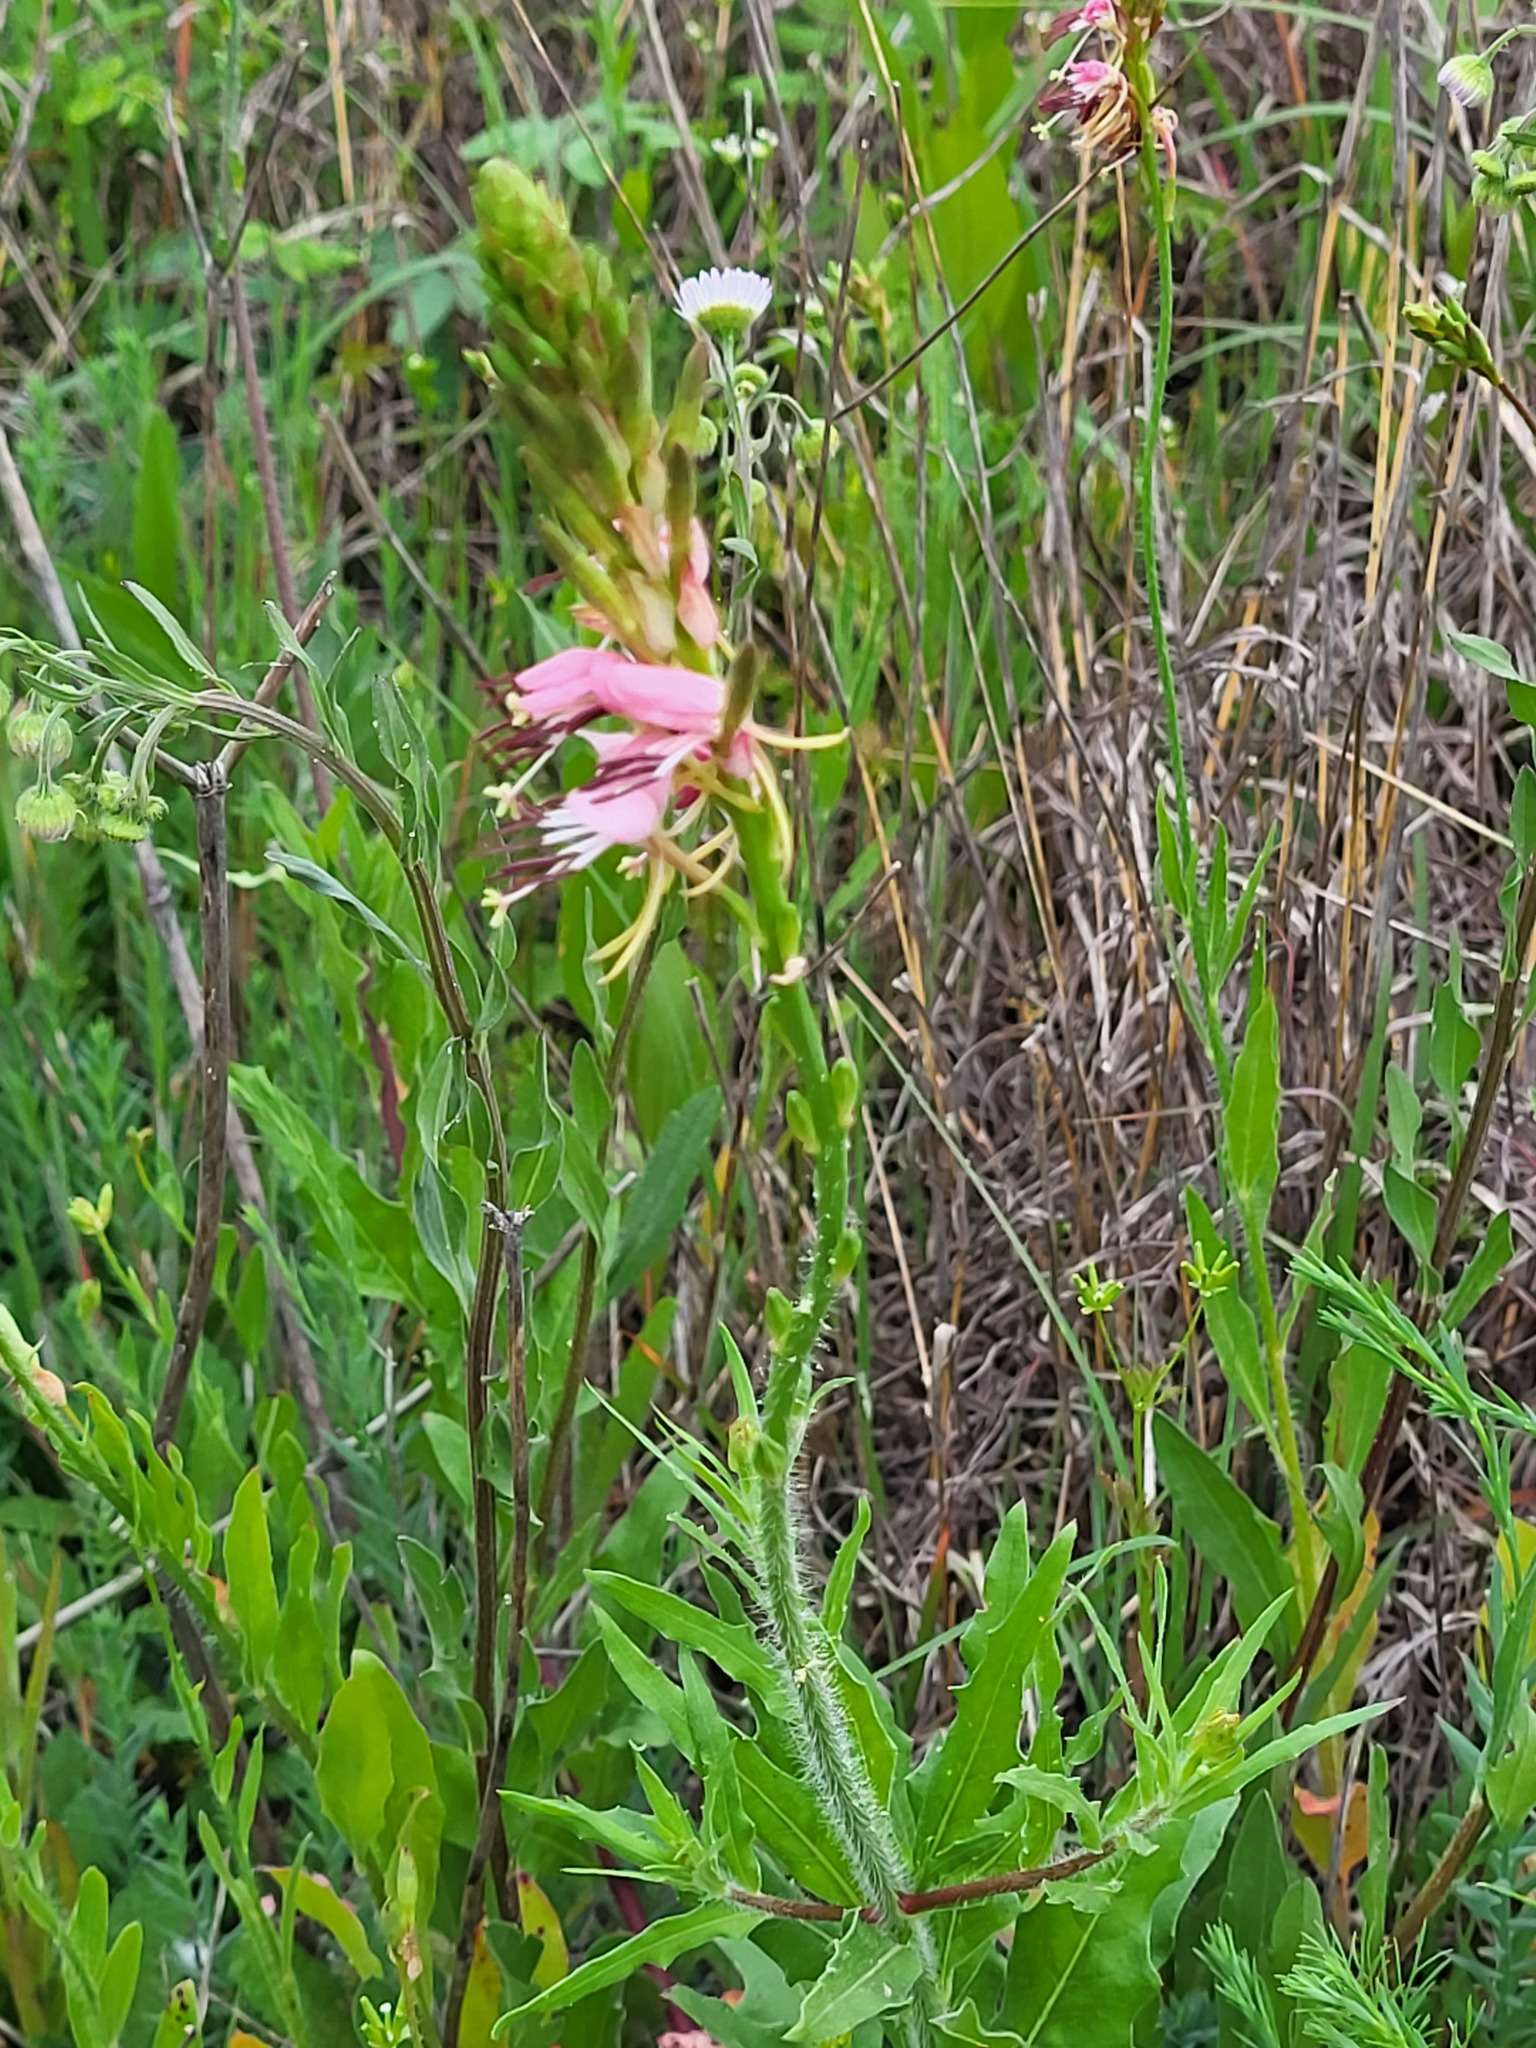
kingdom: Plantae
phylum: Tracheophyta
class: Magnoliopsida
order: Myrtales
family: Onagraceae
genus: Oenothera
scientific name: Oenothera suffulta
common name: Kisses
